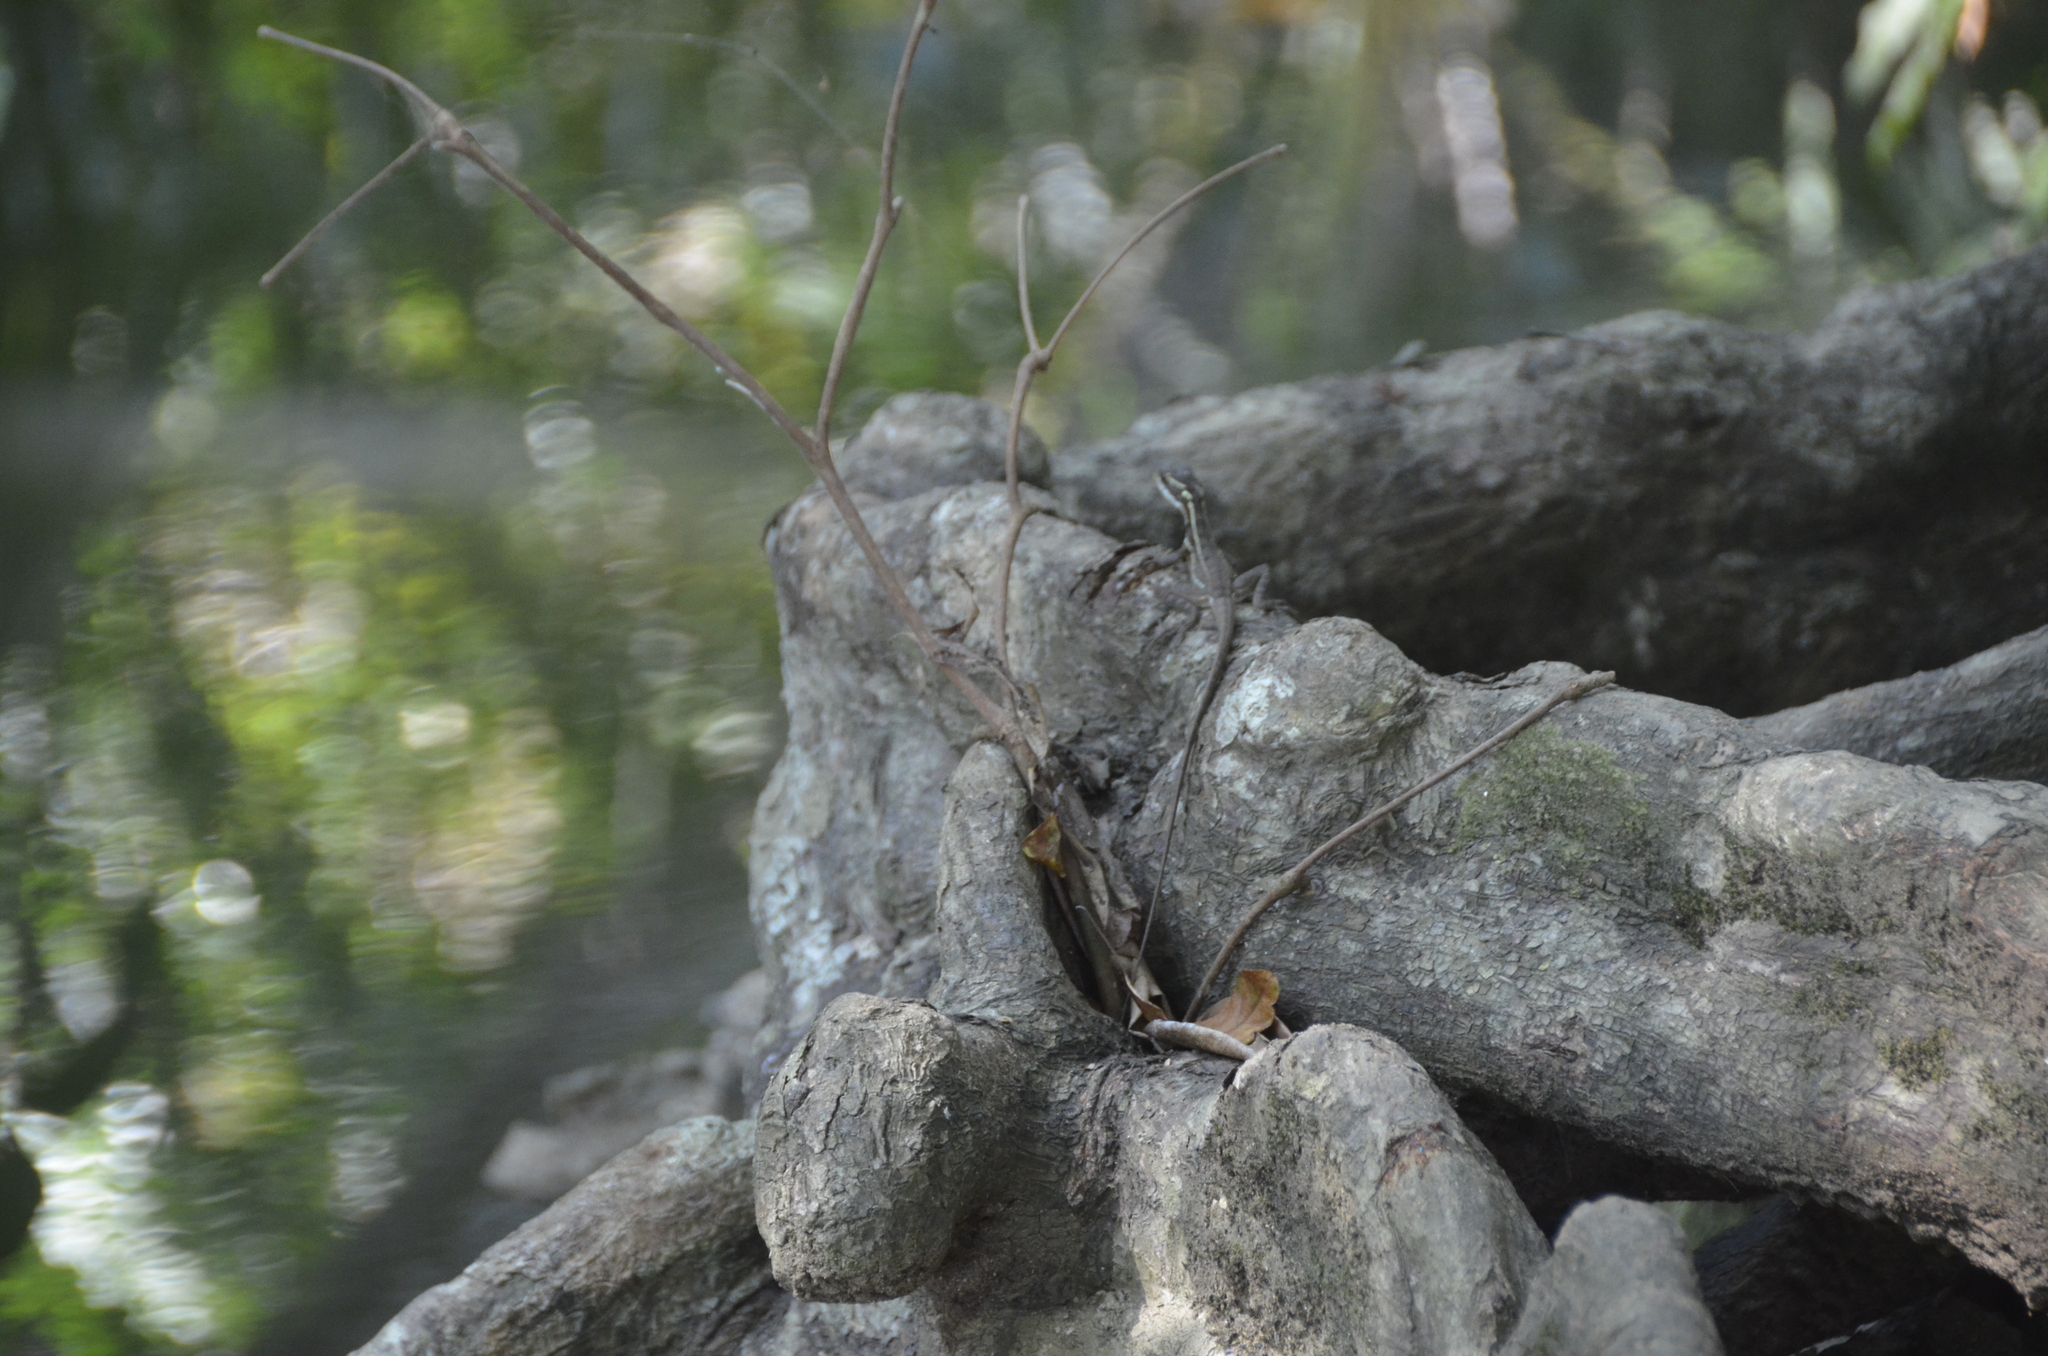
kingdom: Animalia
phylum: Chordata
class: Squamata
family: Corytophanidae
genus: Basiliscus
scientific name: Basiliscus basiliscus
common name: Common basilisk
